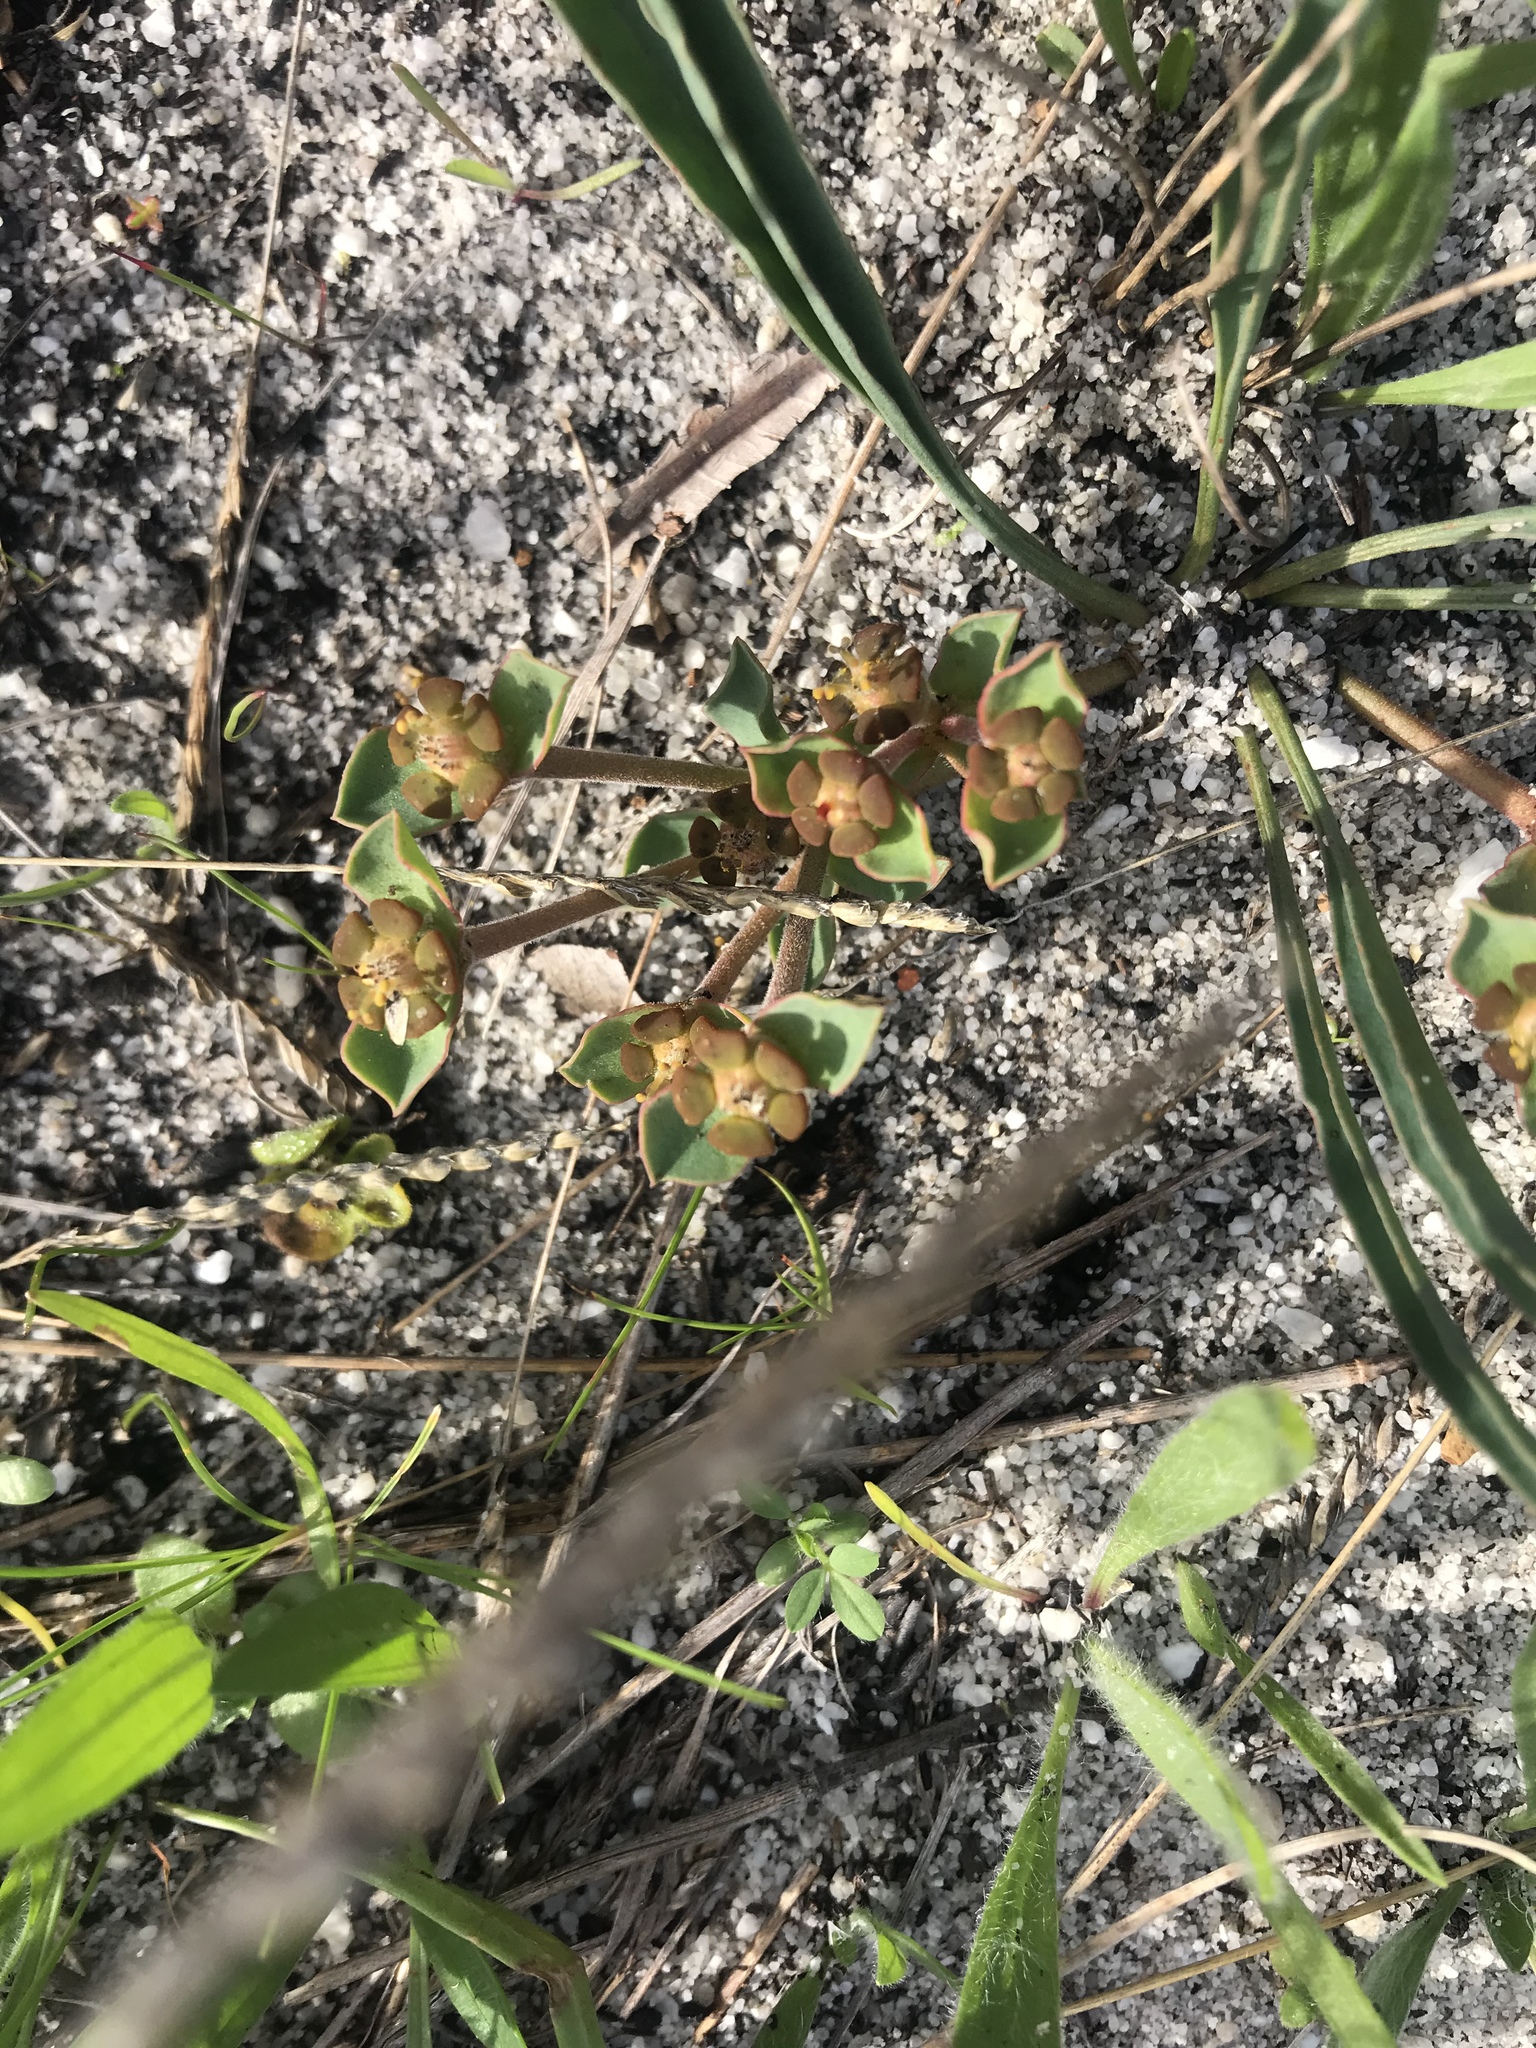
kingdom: Plantae
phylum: Tracheophyta
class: Magnoliopsida
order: Malpighiales
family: Euphorbiaceae
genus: Euphorbia
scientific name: Euphorbia tuberosa
